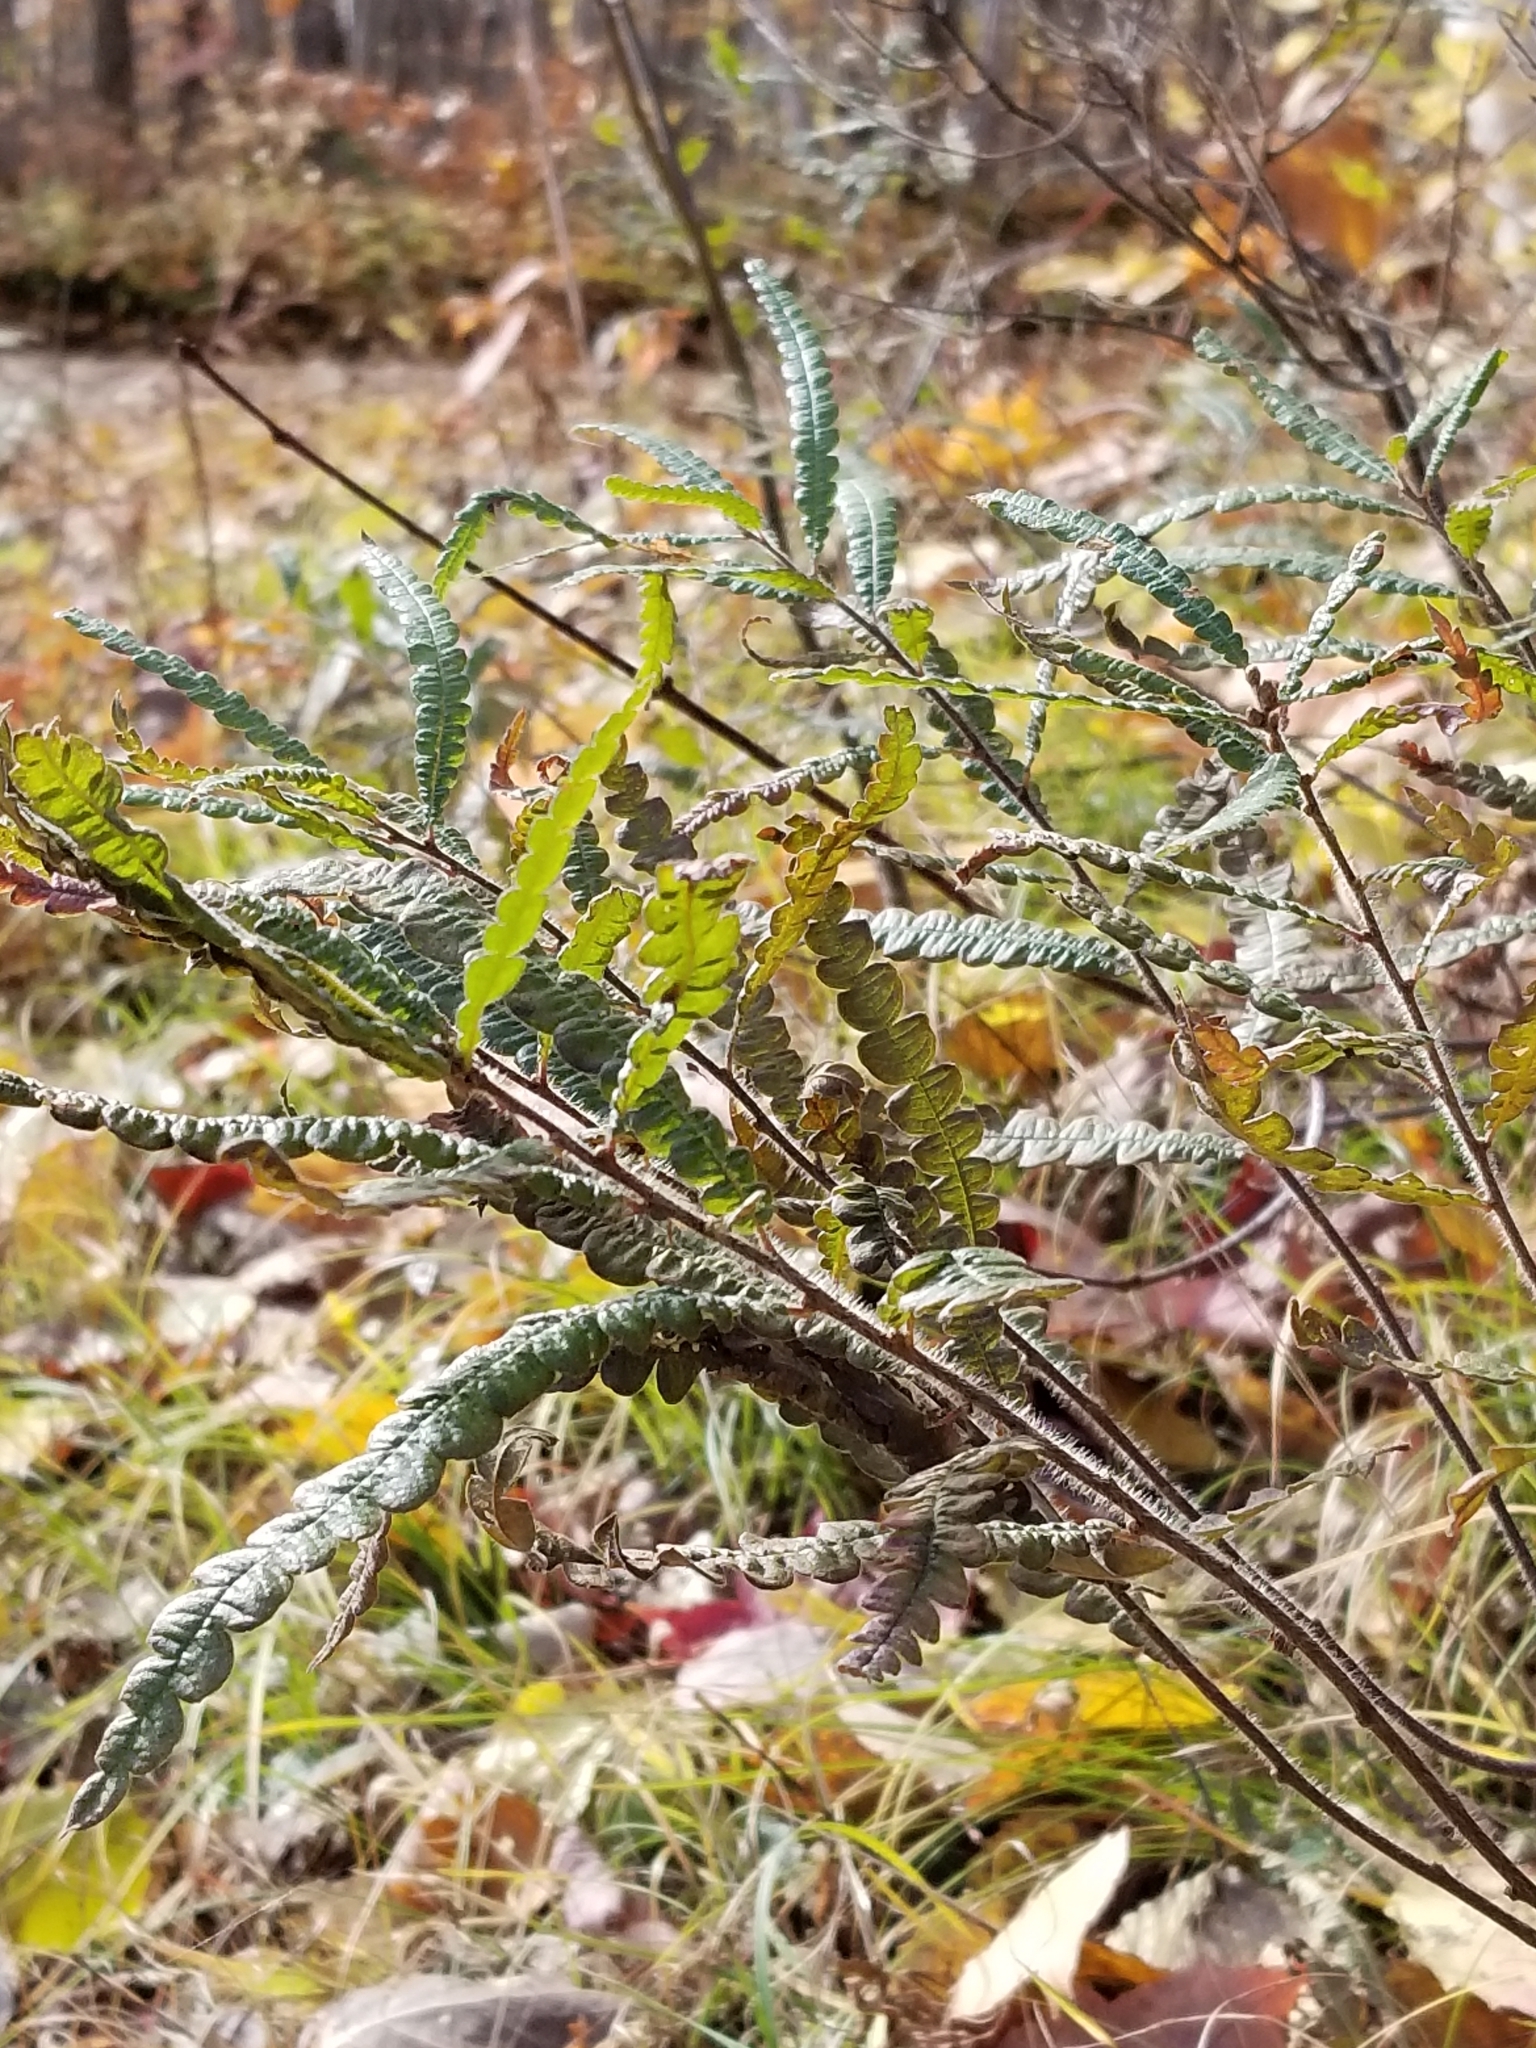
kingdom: Plantae
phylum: Tracheophyta
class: Magnoliopsida
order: Fagales
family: Myricaceae
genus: Comptonia
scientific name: Comptonia peregrina
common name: Sweet-fern
